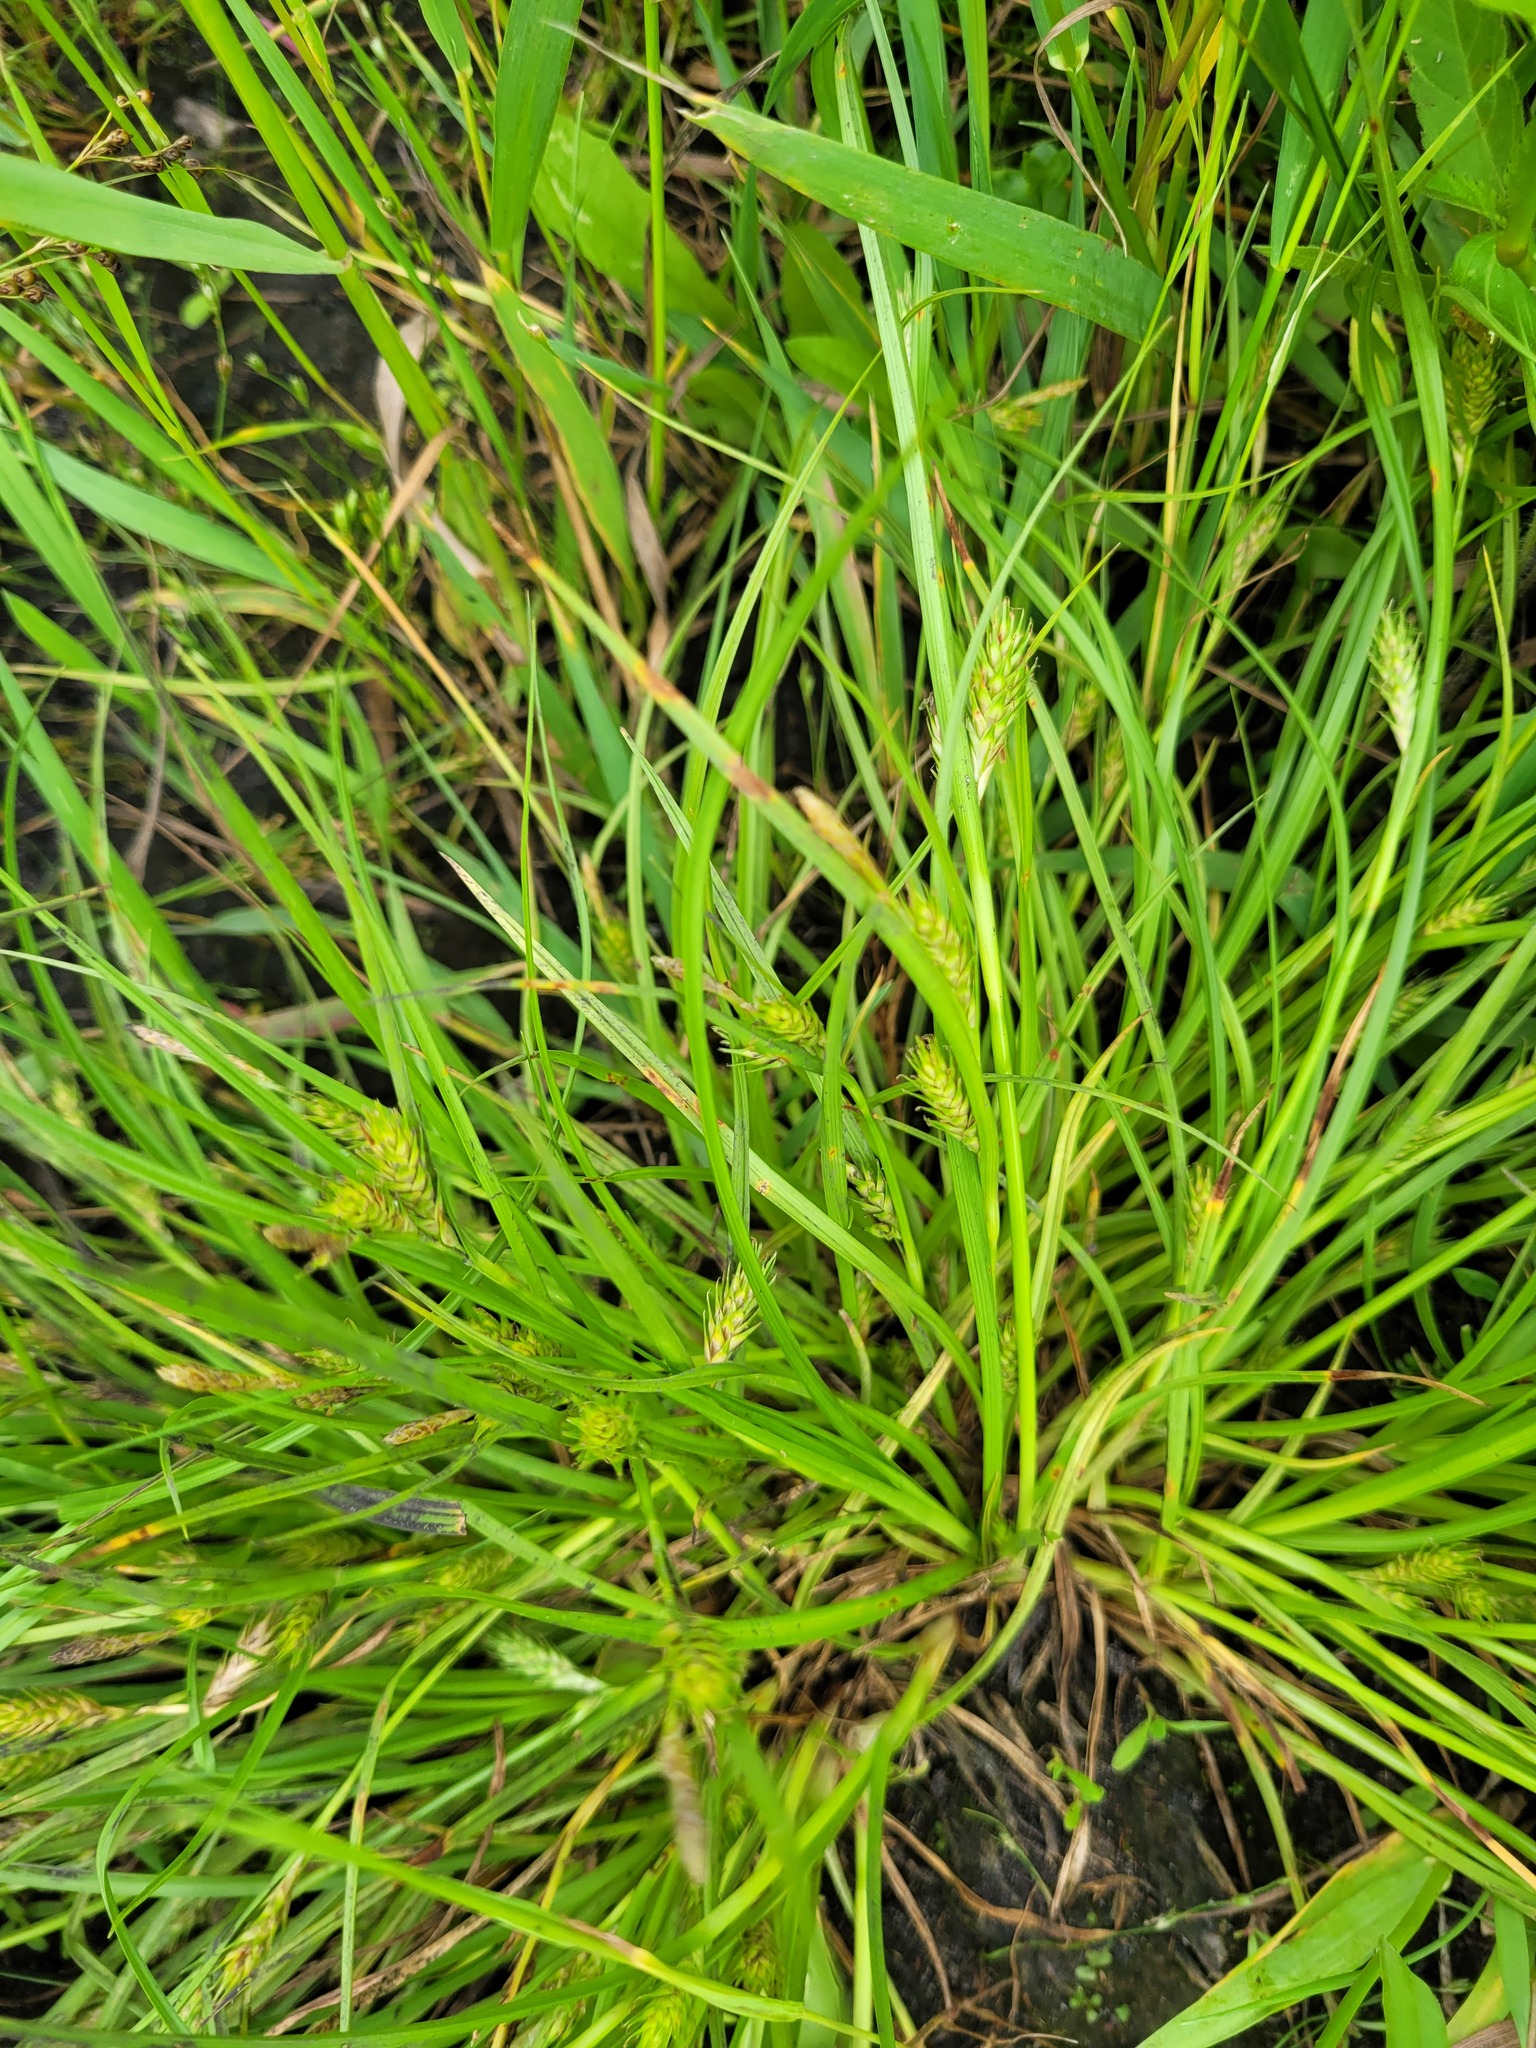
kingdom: Plantae
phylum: Tracheophyta
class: Liliopsida
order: Poales
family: Cyperaceae
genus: Carex
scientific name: Carex secalina
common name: Rye sedge
